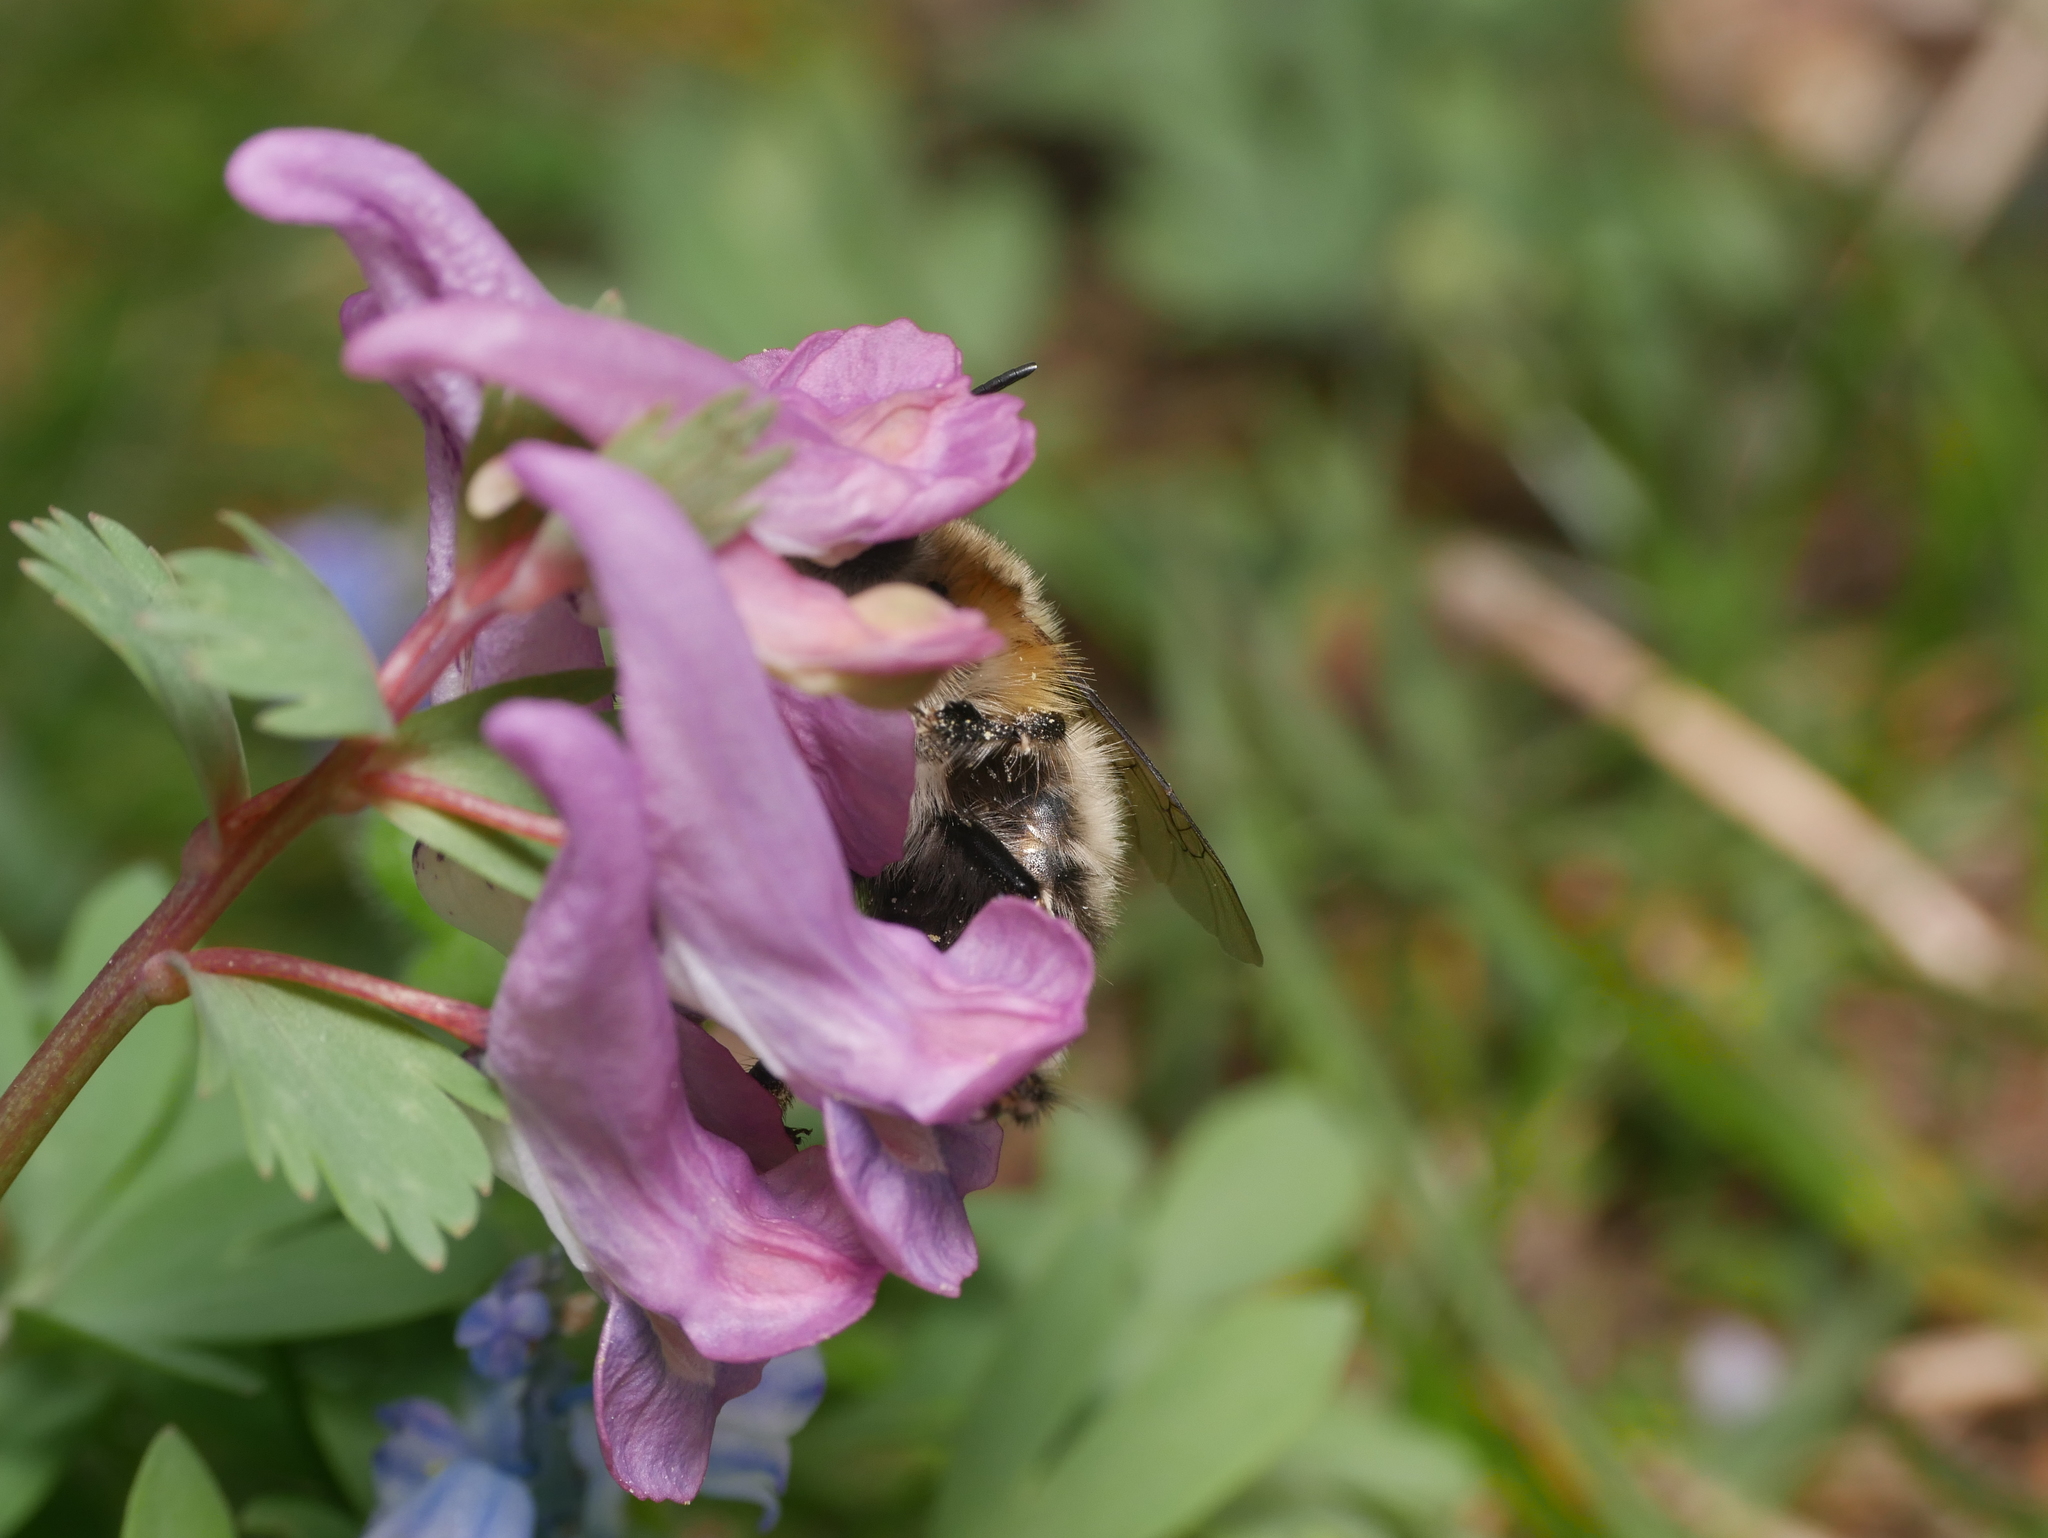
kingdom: Animalia
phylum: Arthropoda
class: Insecta
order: Hymenoptera
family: Apidae
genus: Anthophora
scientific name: Anthophora plumipes
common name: Hairy-footed flower bee
